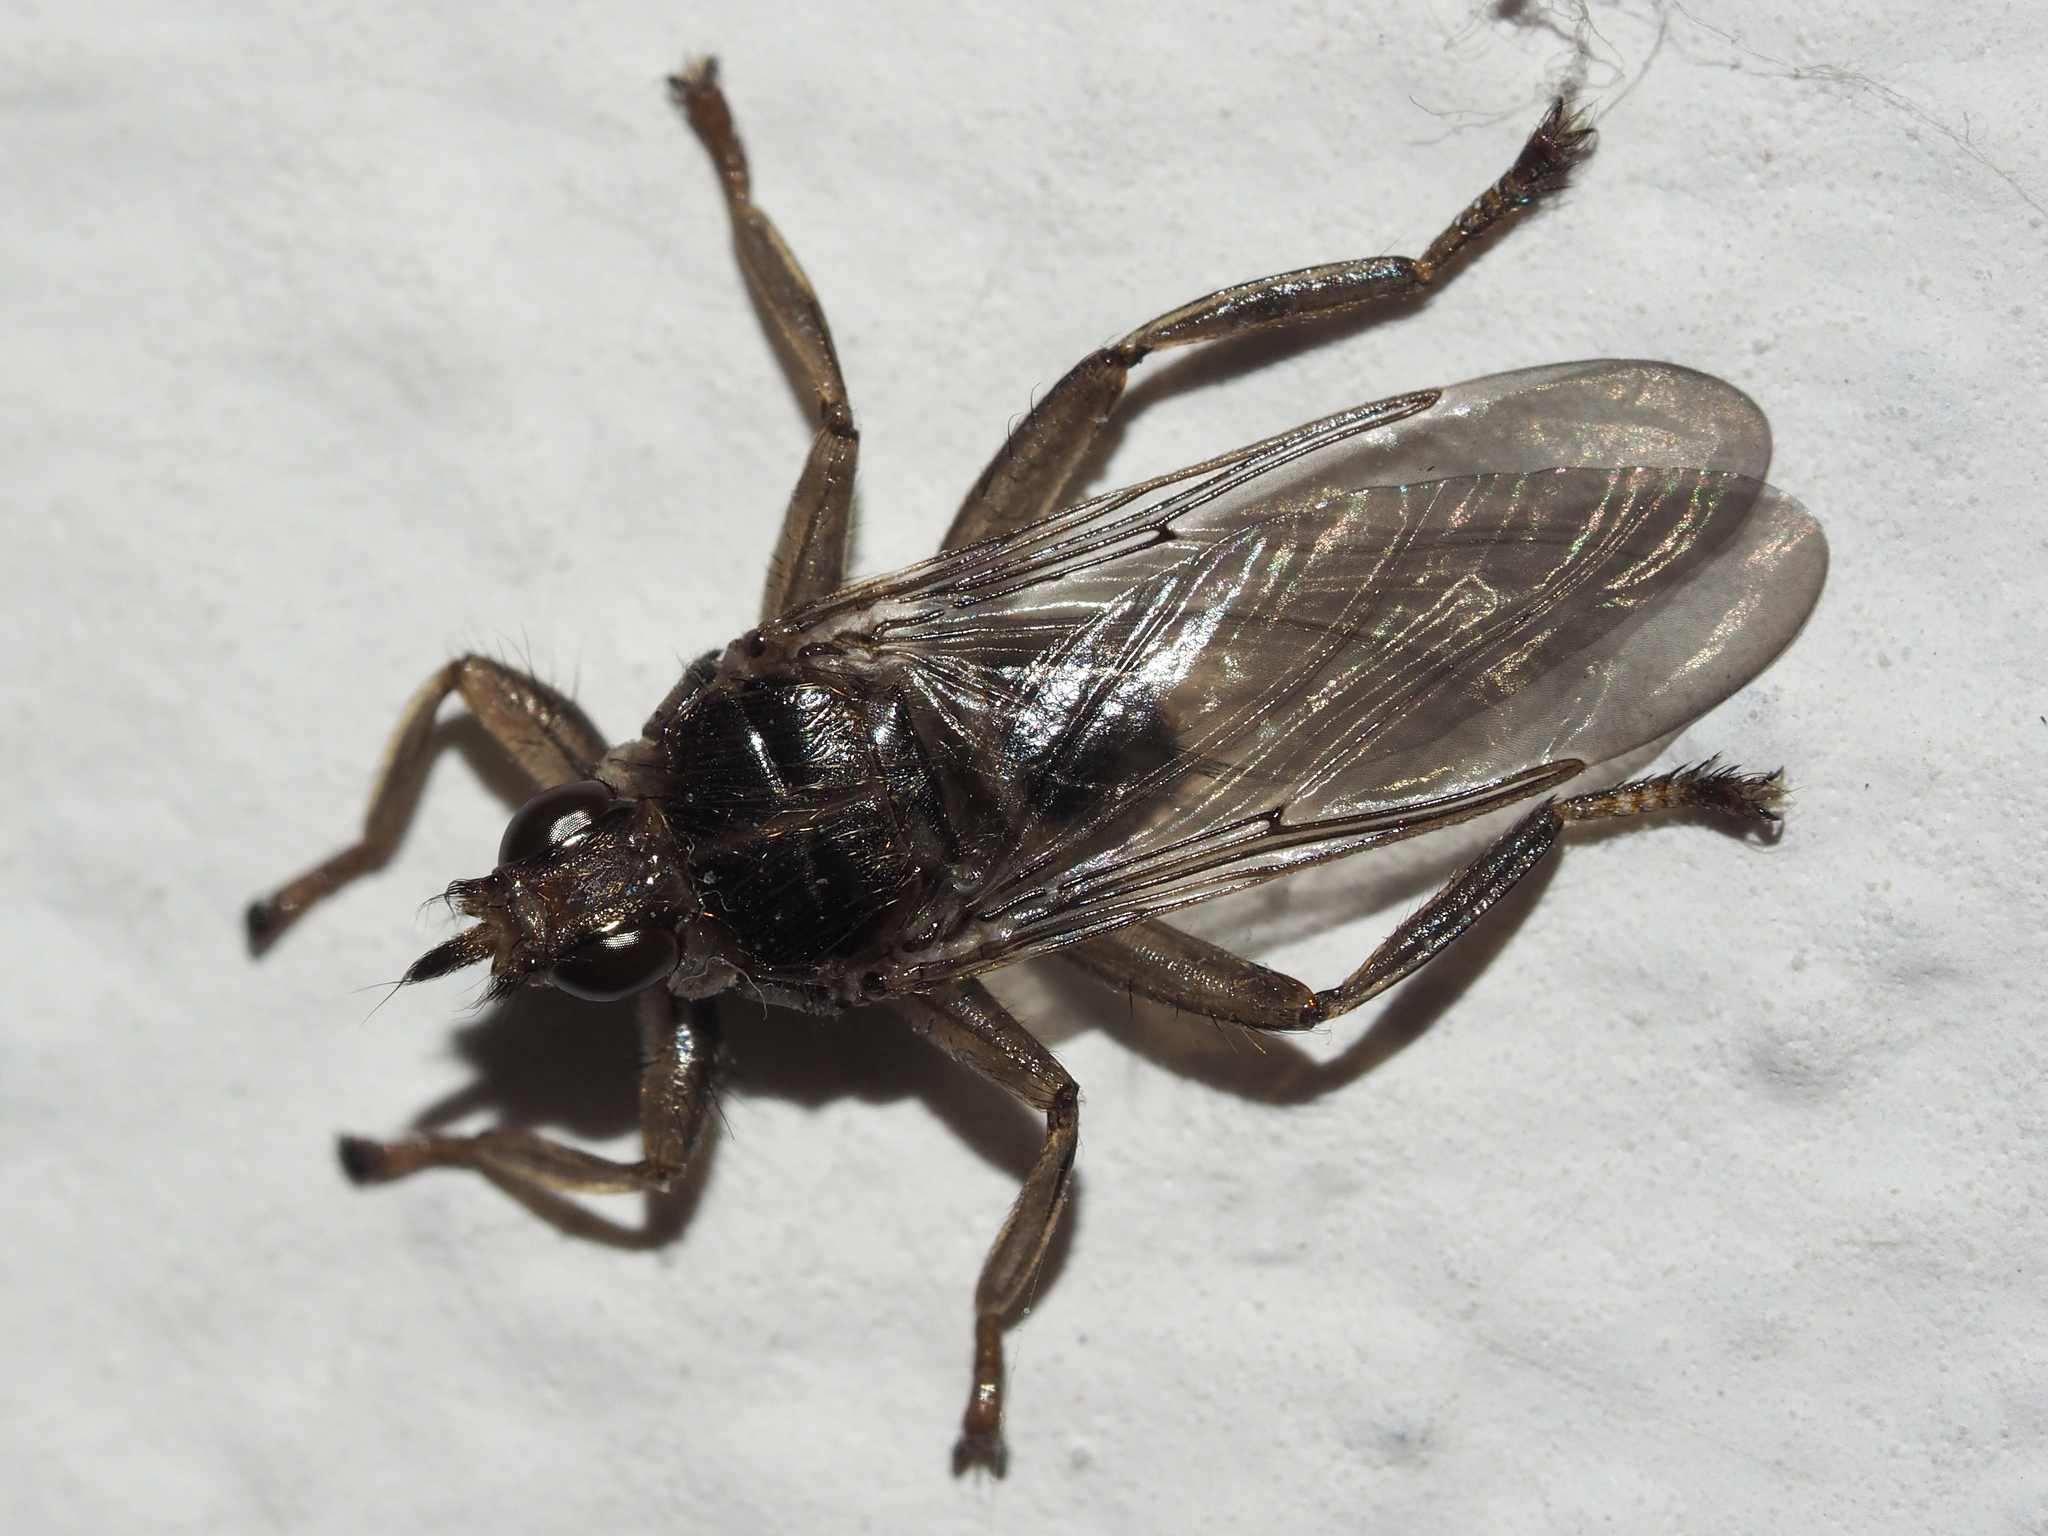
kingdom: Animalia
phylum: Arthropoda
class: Insecta
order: Diptera
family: Hippoboscidae
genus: Pseudolynchia
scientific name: Pseudolynchia canariensis
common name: Louse fly
